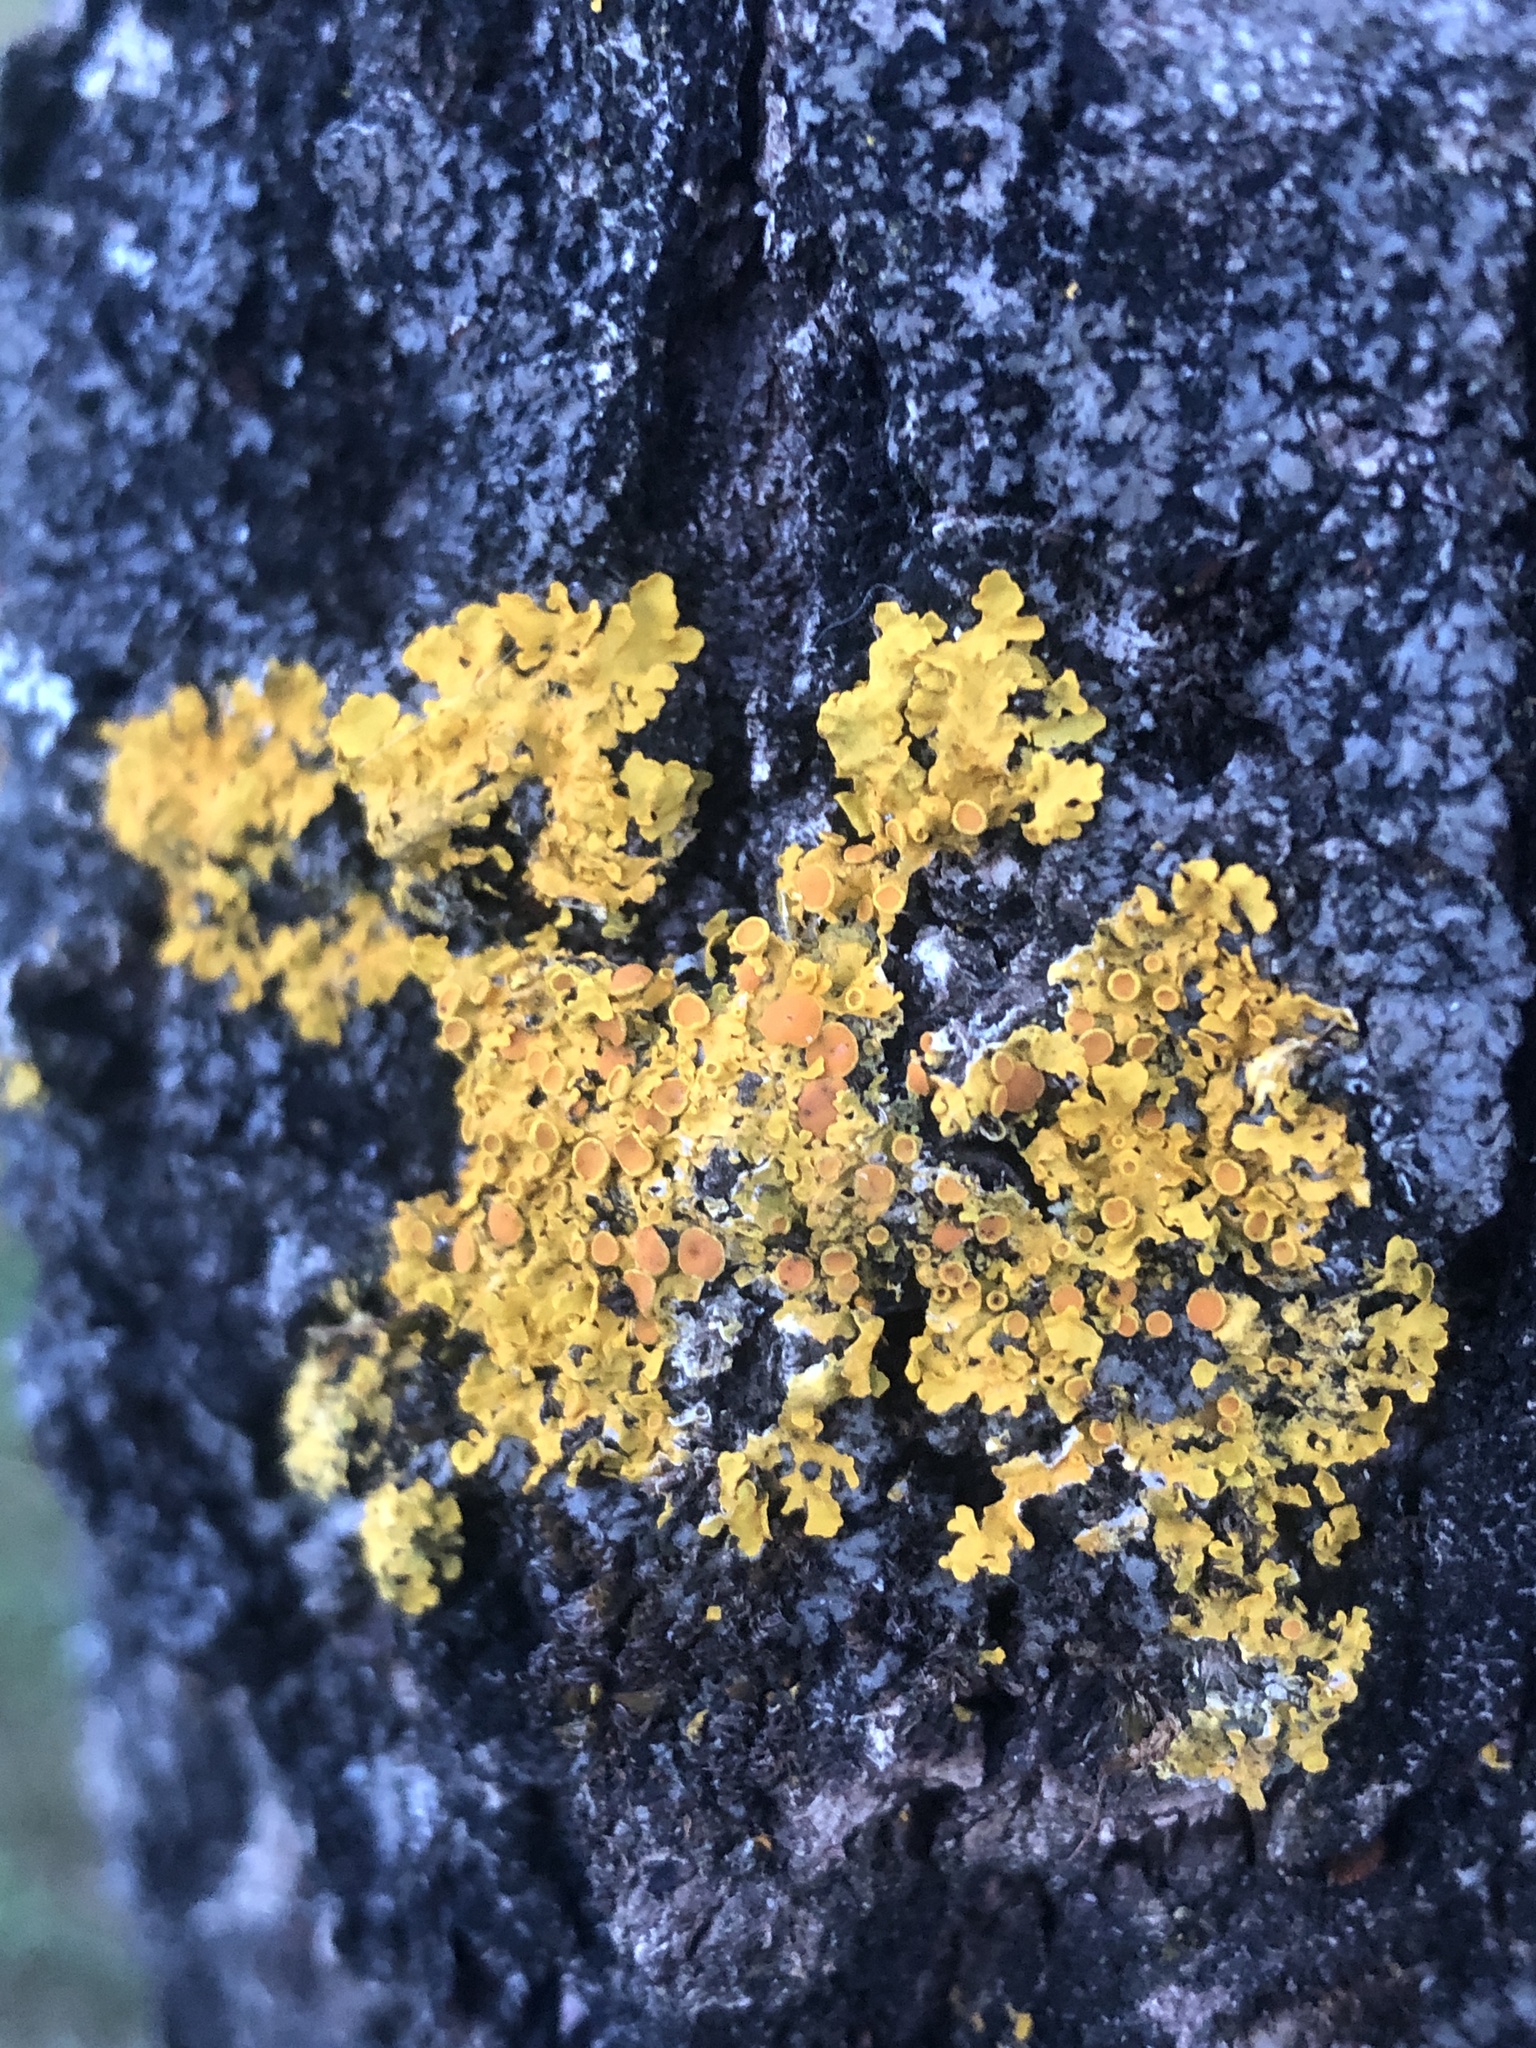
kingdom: Fungi
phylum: Ascomycota
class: Lecanoromycetes
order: Teloschistales
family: Teloschistaceae
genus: Xanthoria
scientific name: Xanthoria parietina
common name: Common orange lichen
